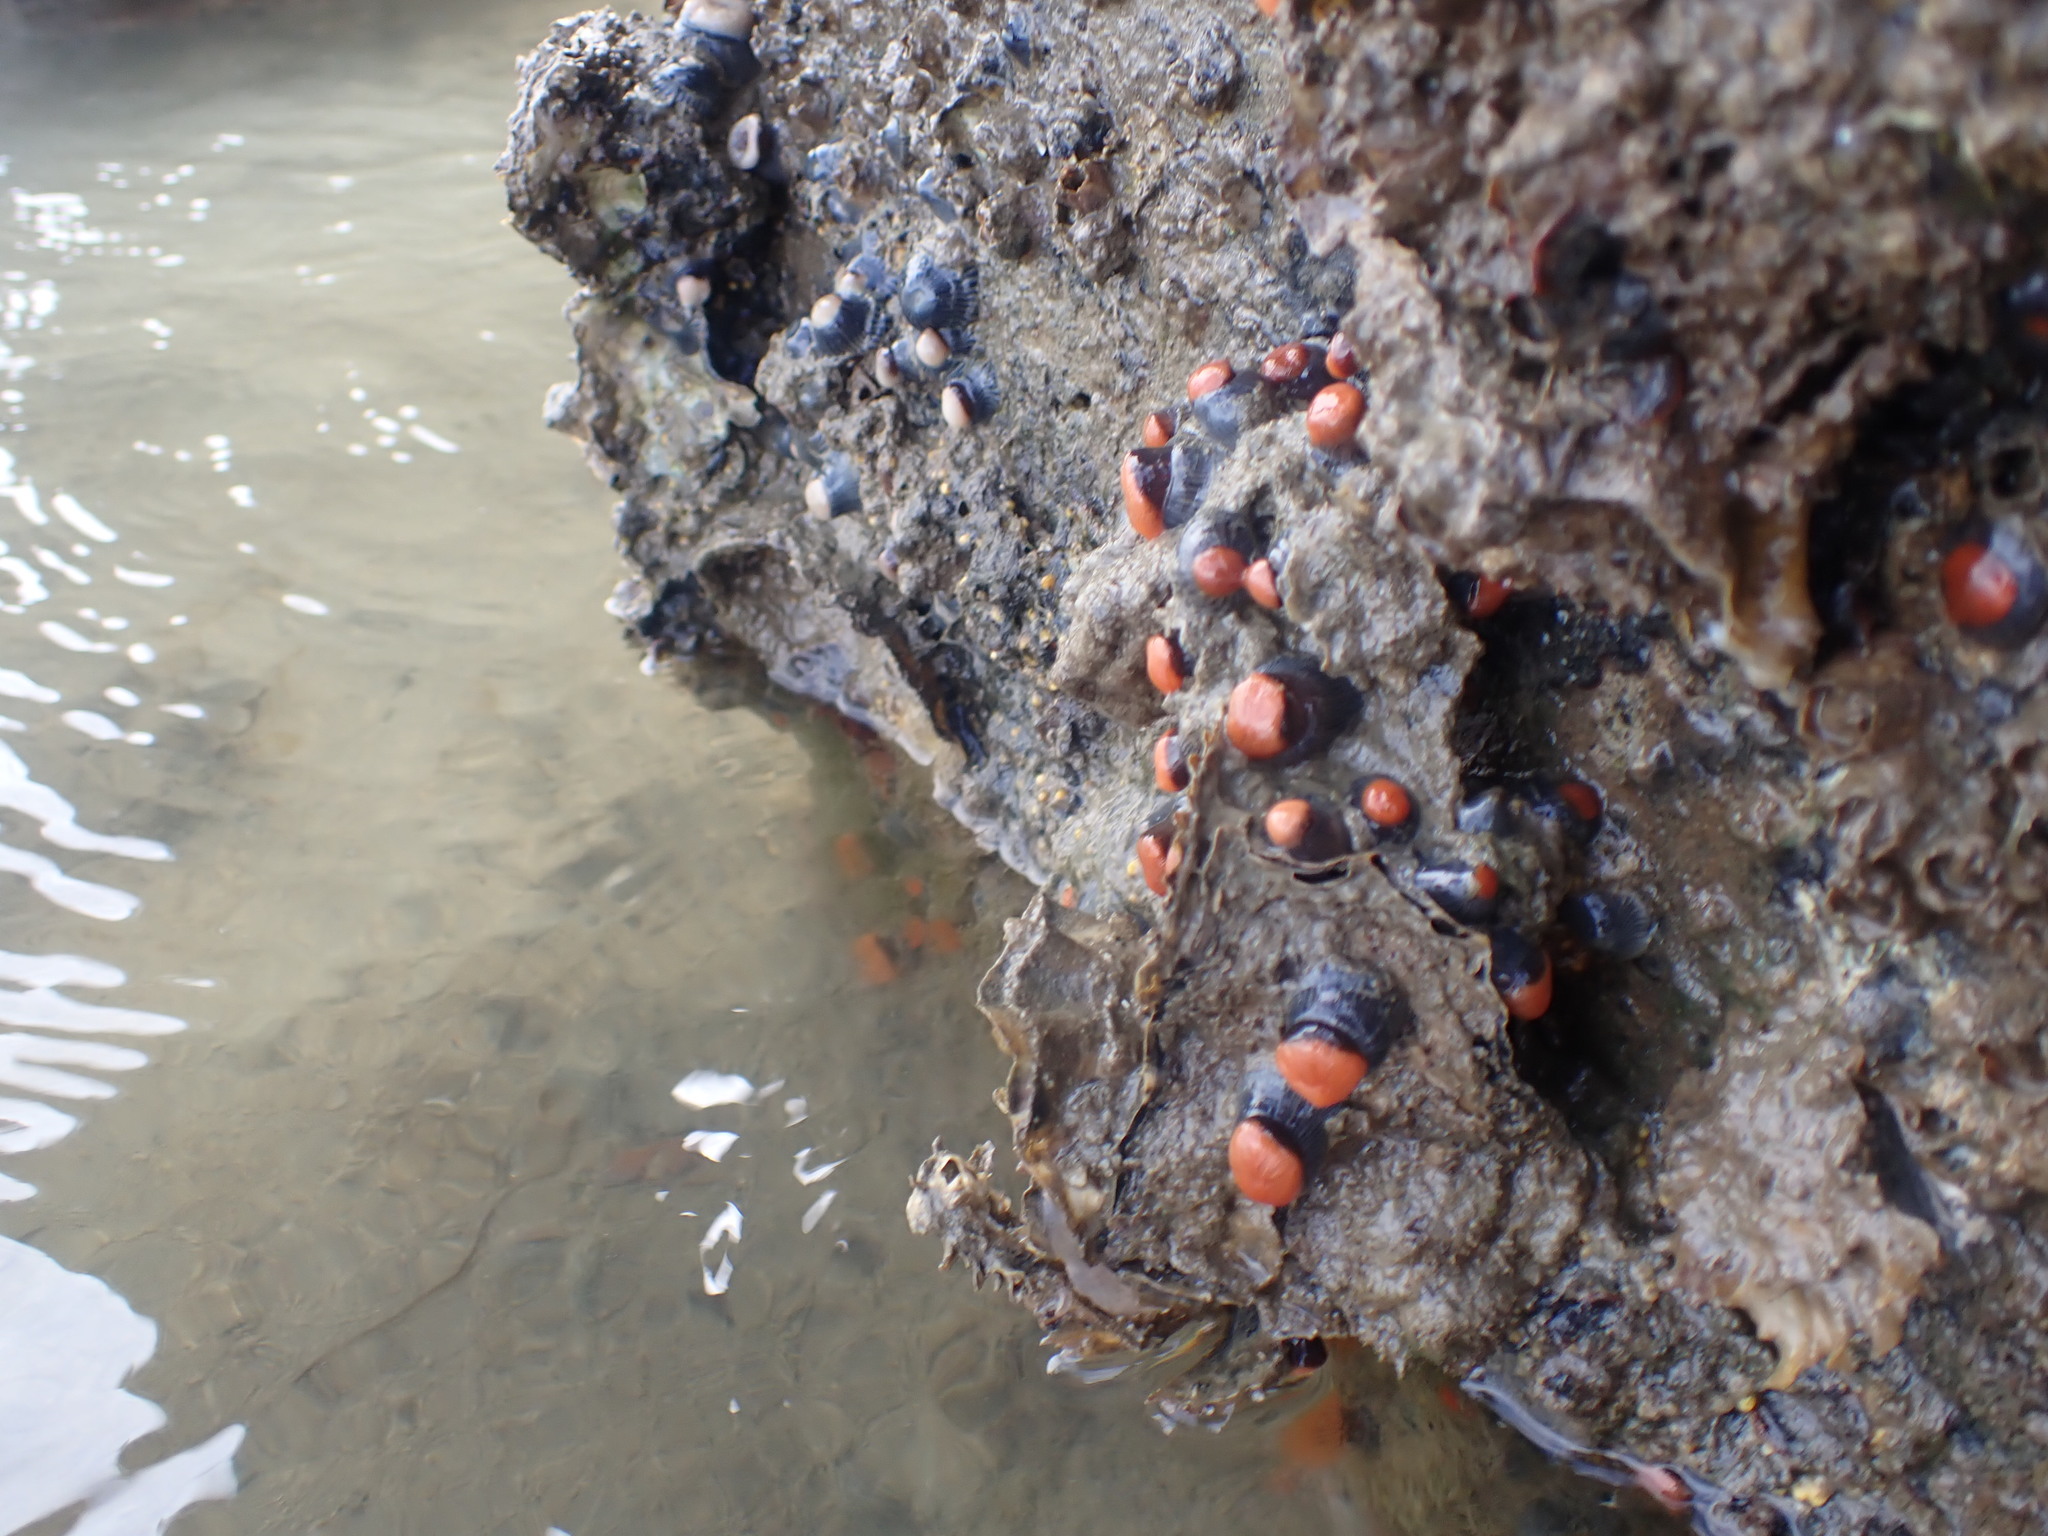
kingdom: Animalia
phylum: Cnidaria
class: Anthozoa
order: Actiniaria
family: Diadumenidae
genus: Diadumene
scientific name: Diadumene neozelanica
